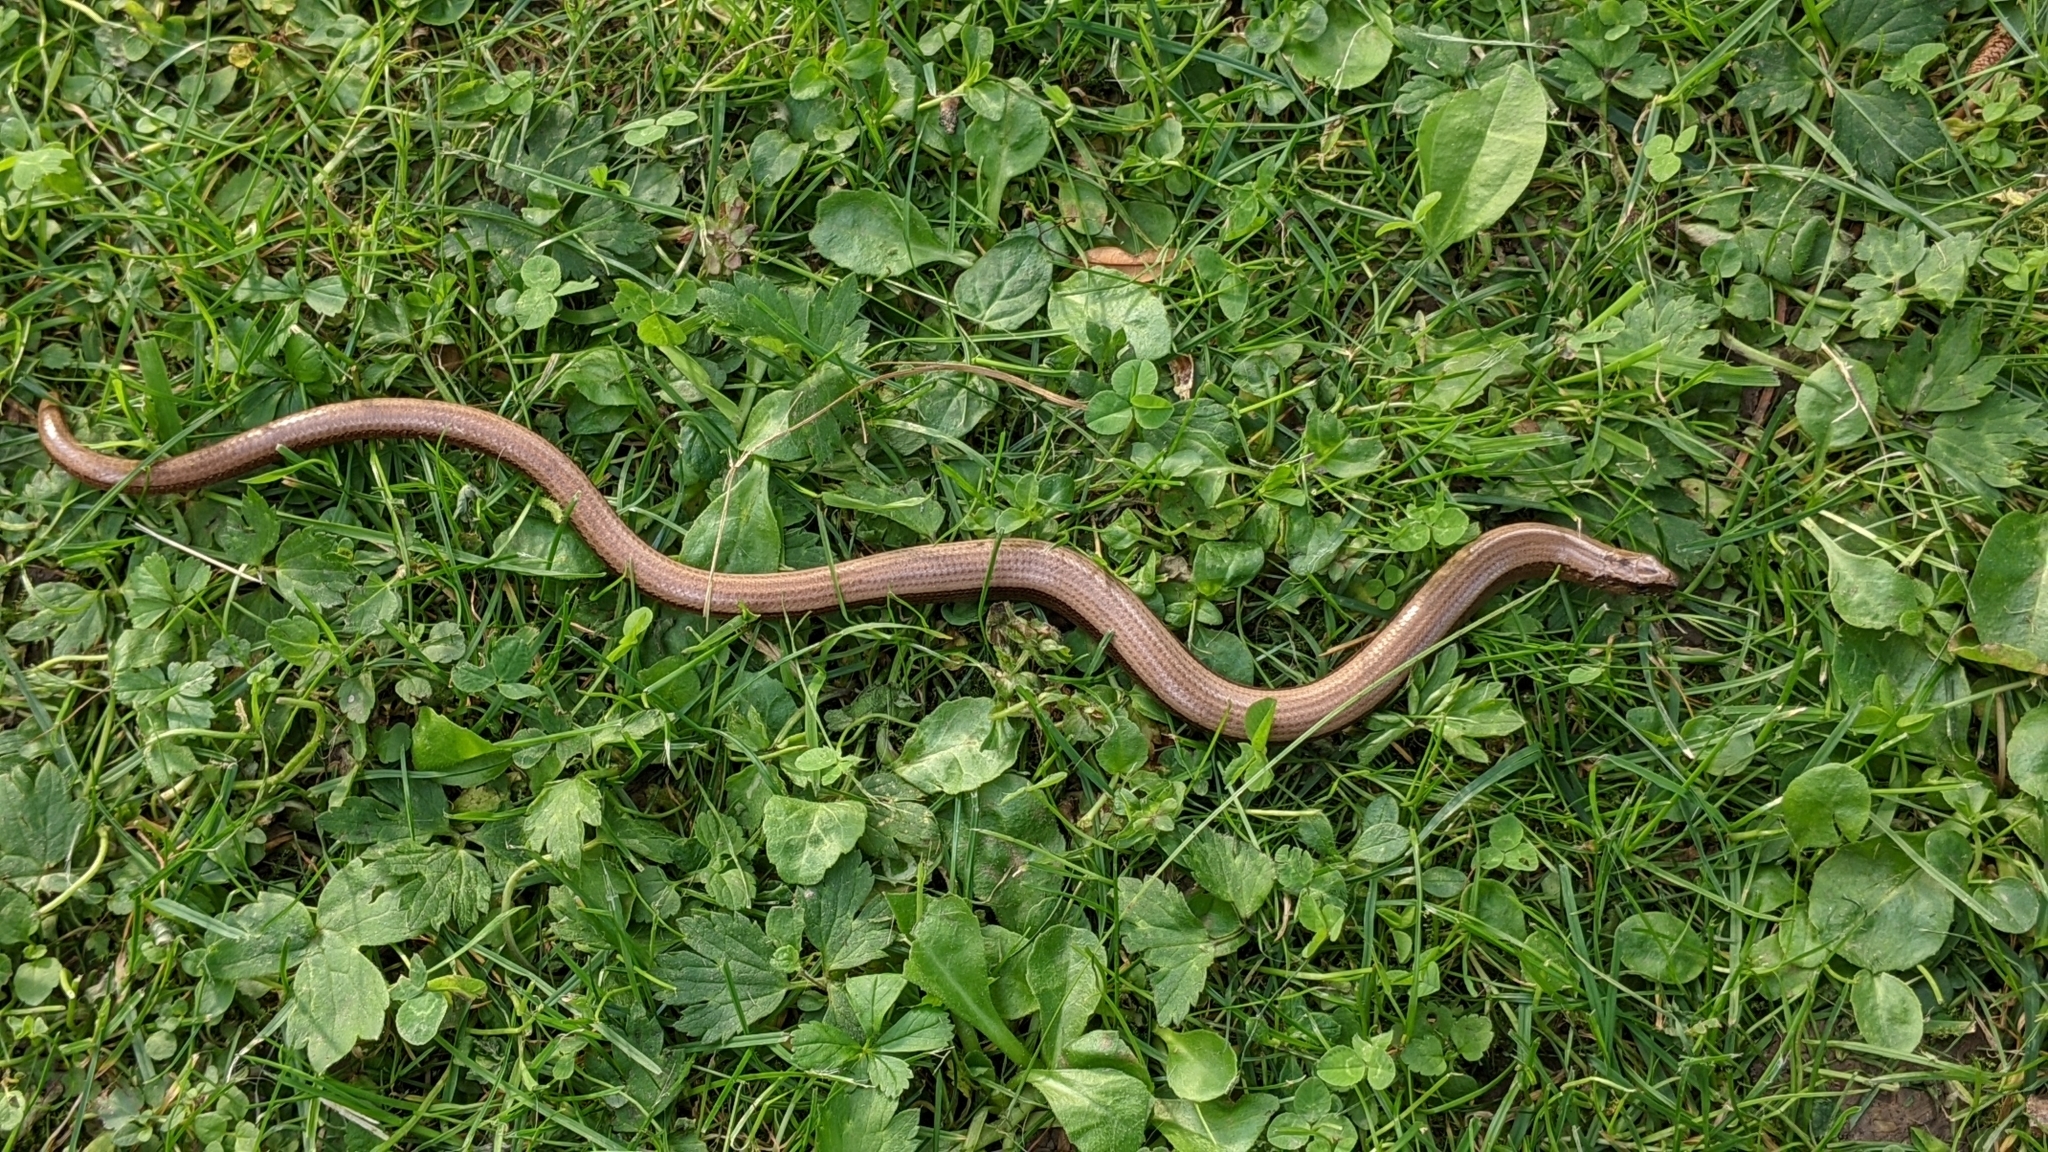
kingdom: Animalia
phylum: Chordata
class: Squamata
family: Anguidae
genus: Anguis
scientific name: Anguis fragilis
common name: Slow worm
